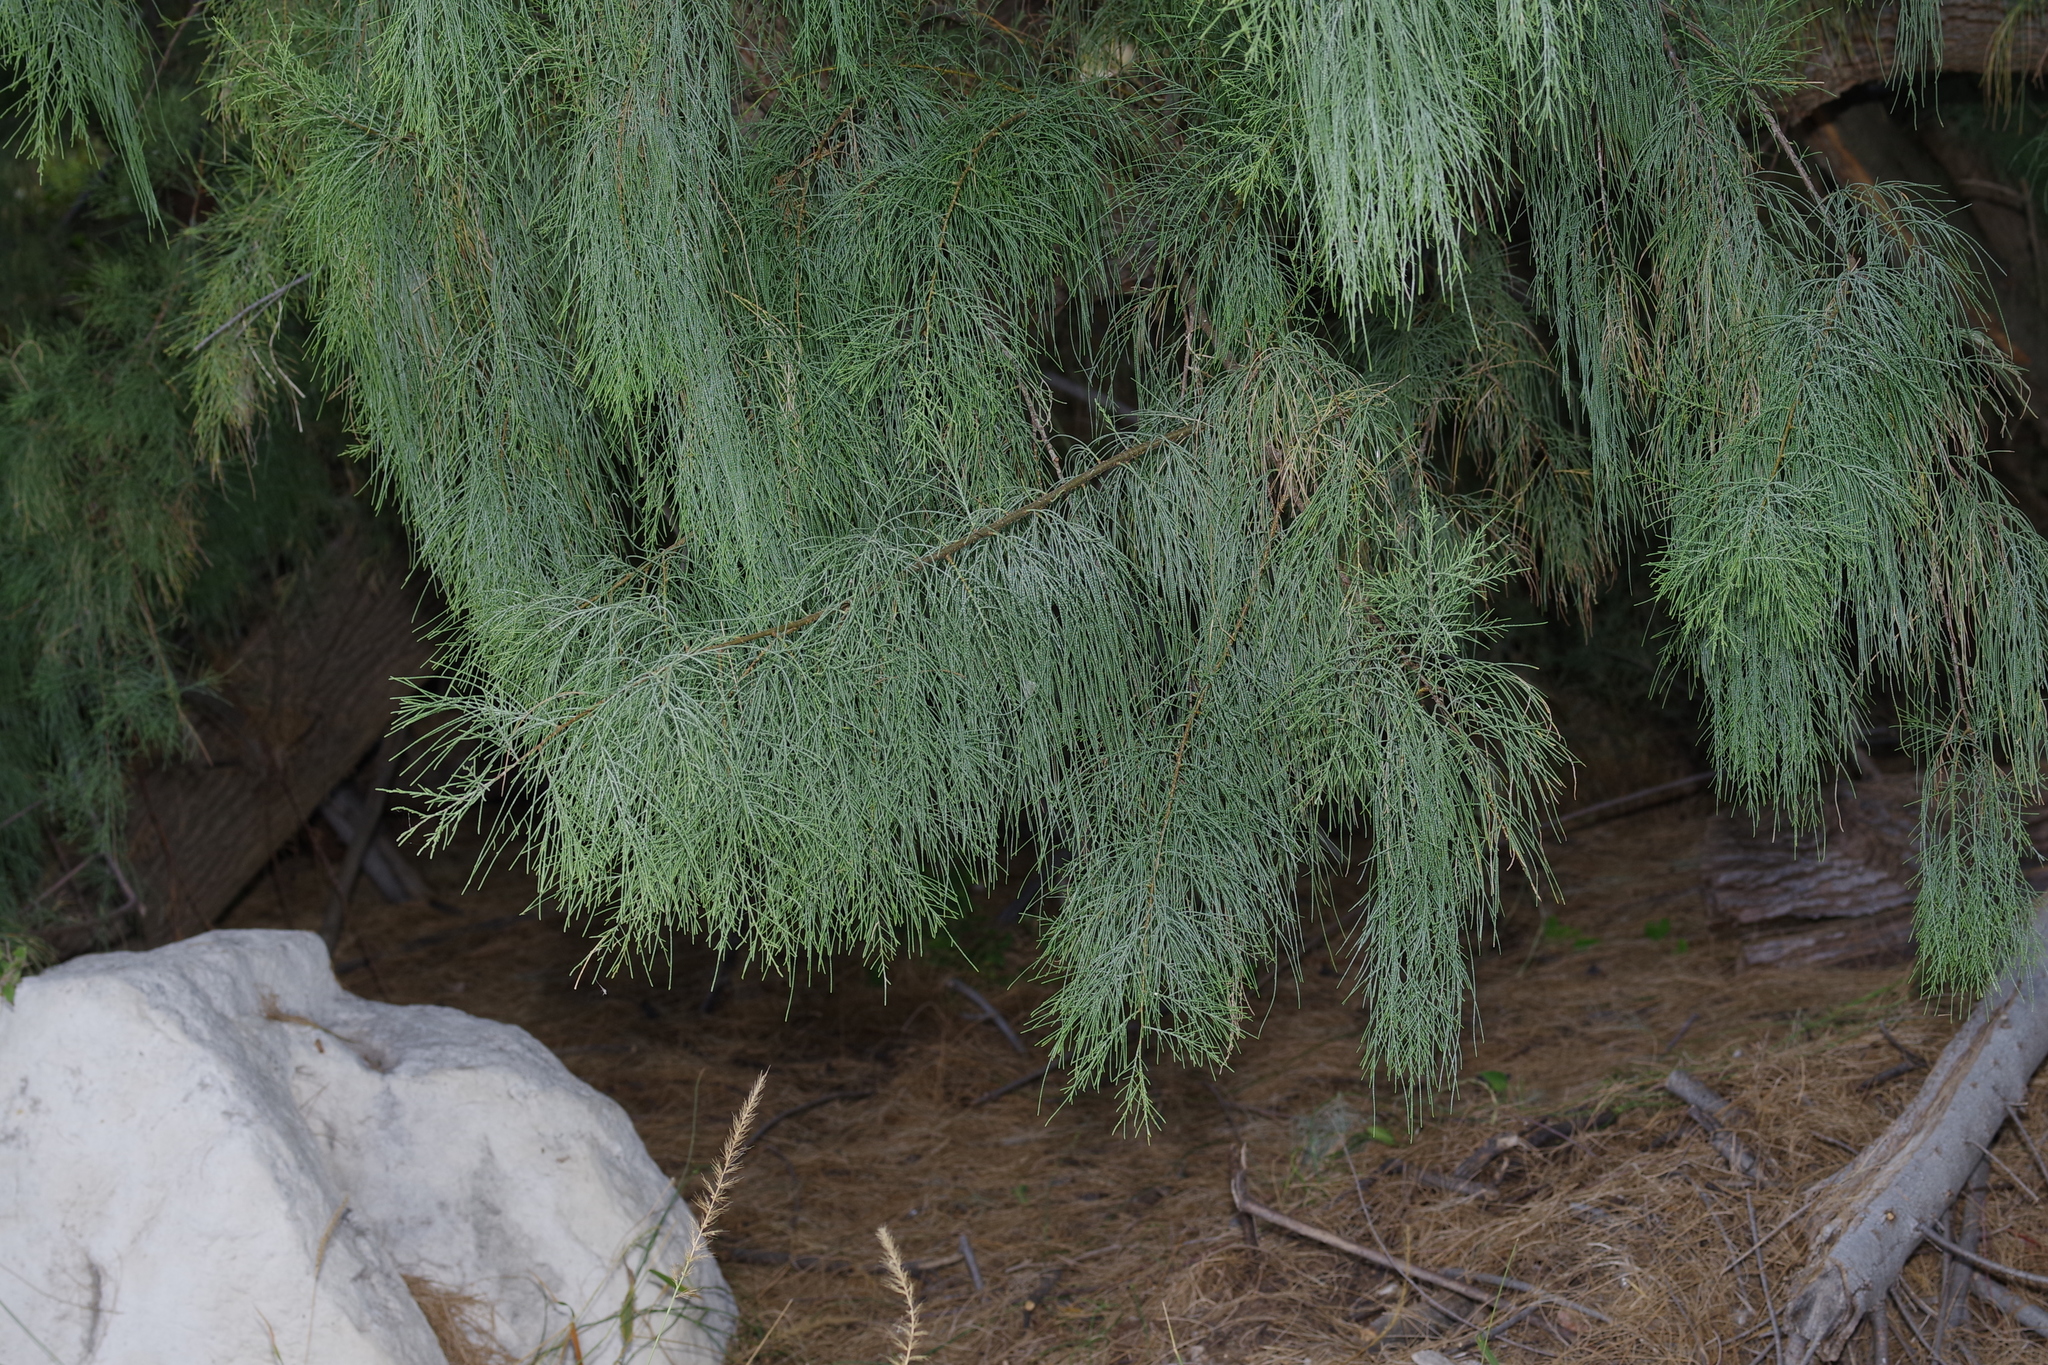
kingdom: Plantae
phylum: Tracheophyta
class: Magnoliopsida
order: Caryophyllales
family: Tamaricaceae
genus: Tamarix
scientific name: Tamarix aphylla
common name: Athel tamarisk
